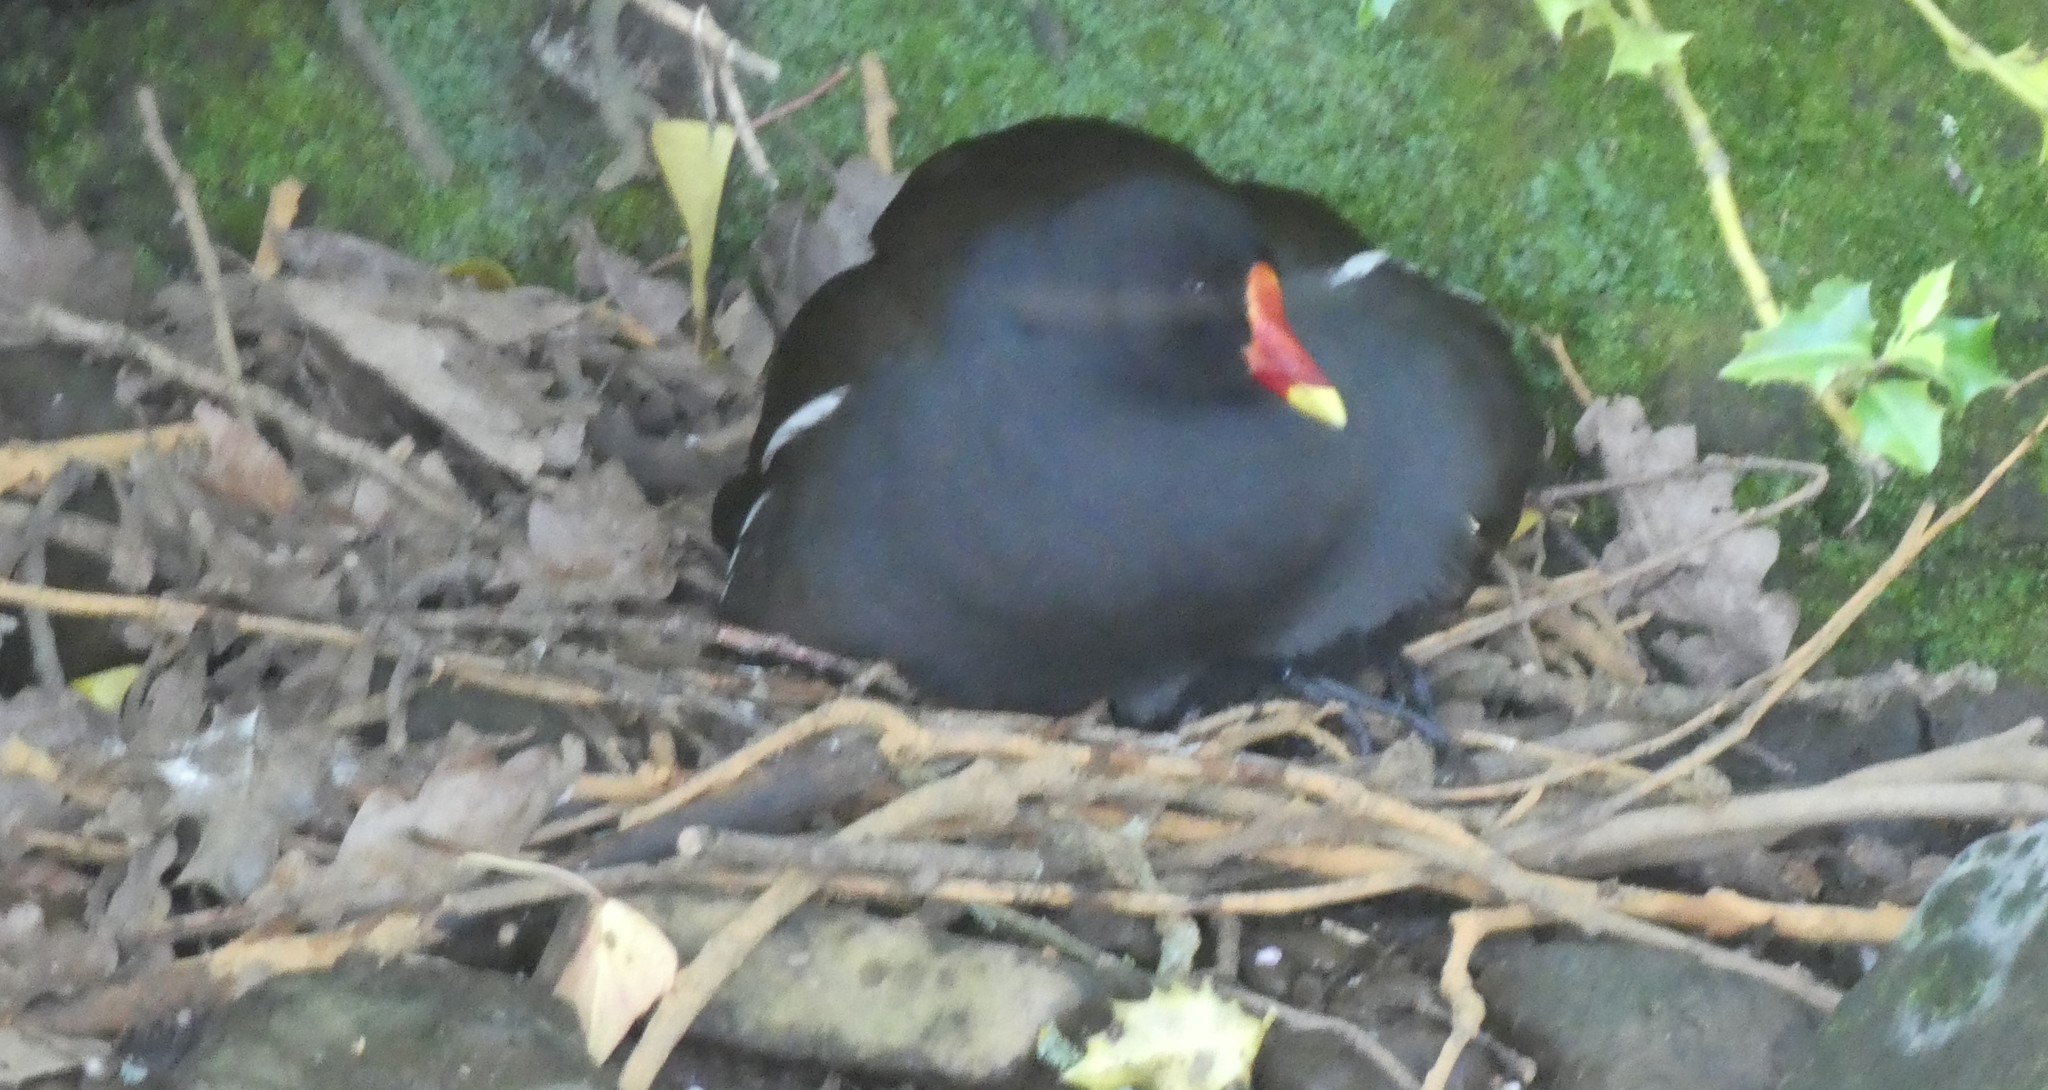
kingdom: Animalia
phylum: Chordata
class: Aves
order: Gruiformes
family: Rallidae
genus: Gallinula
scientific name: Gallinula chloropus
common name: Common moorhen
